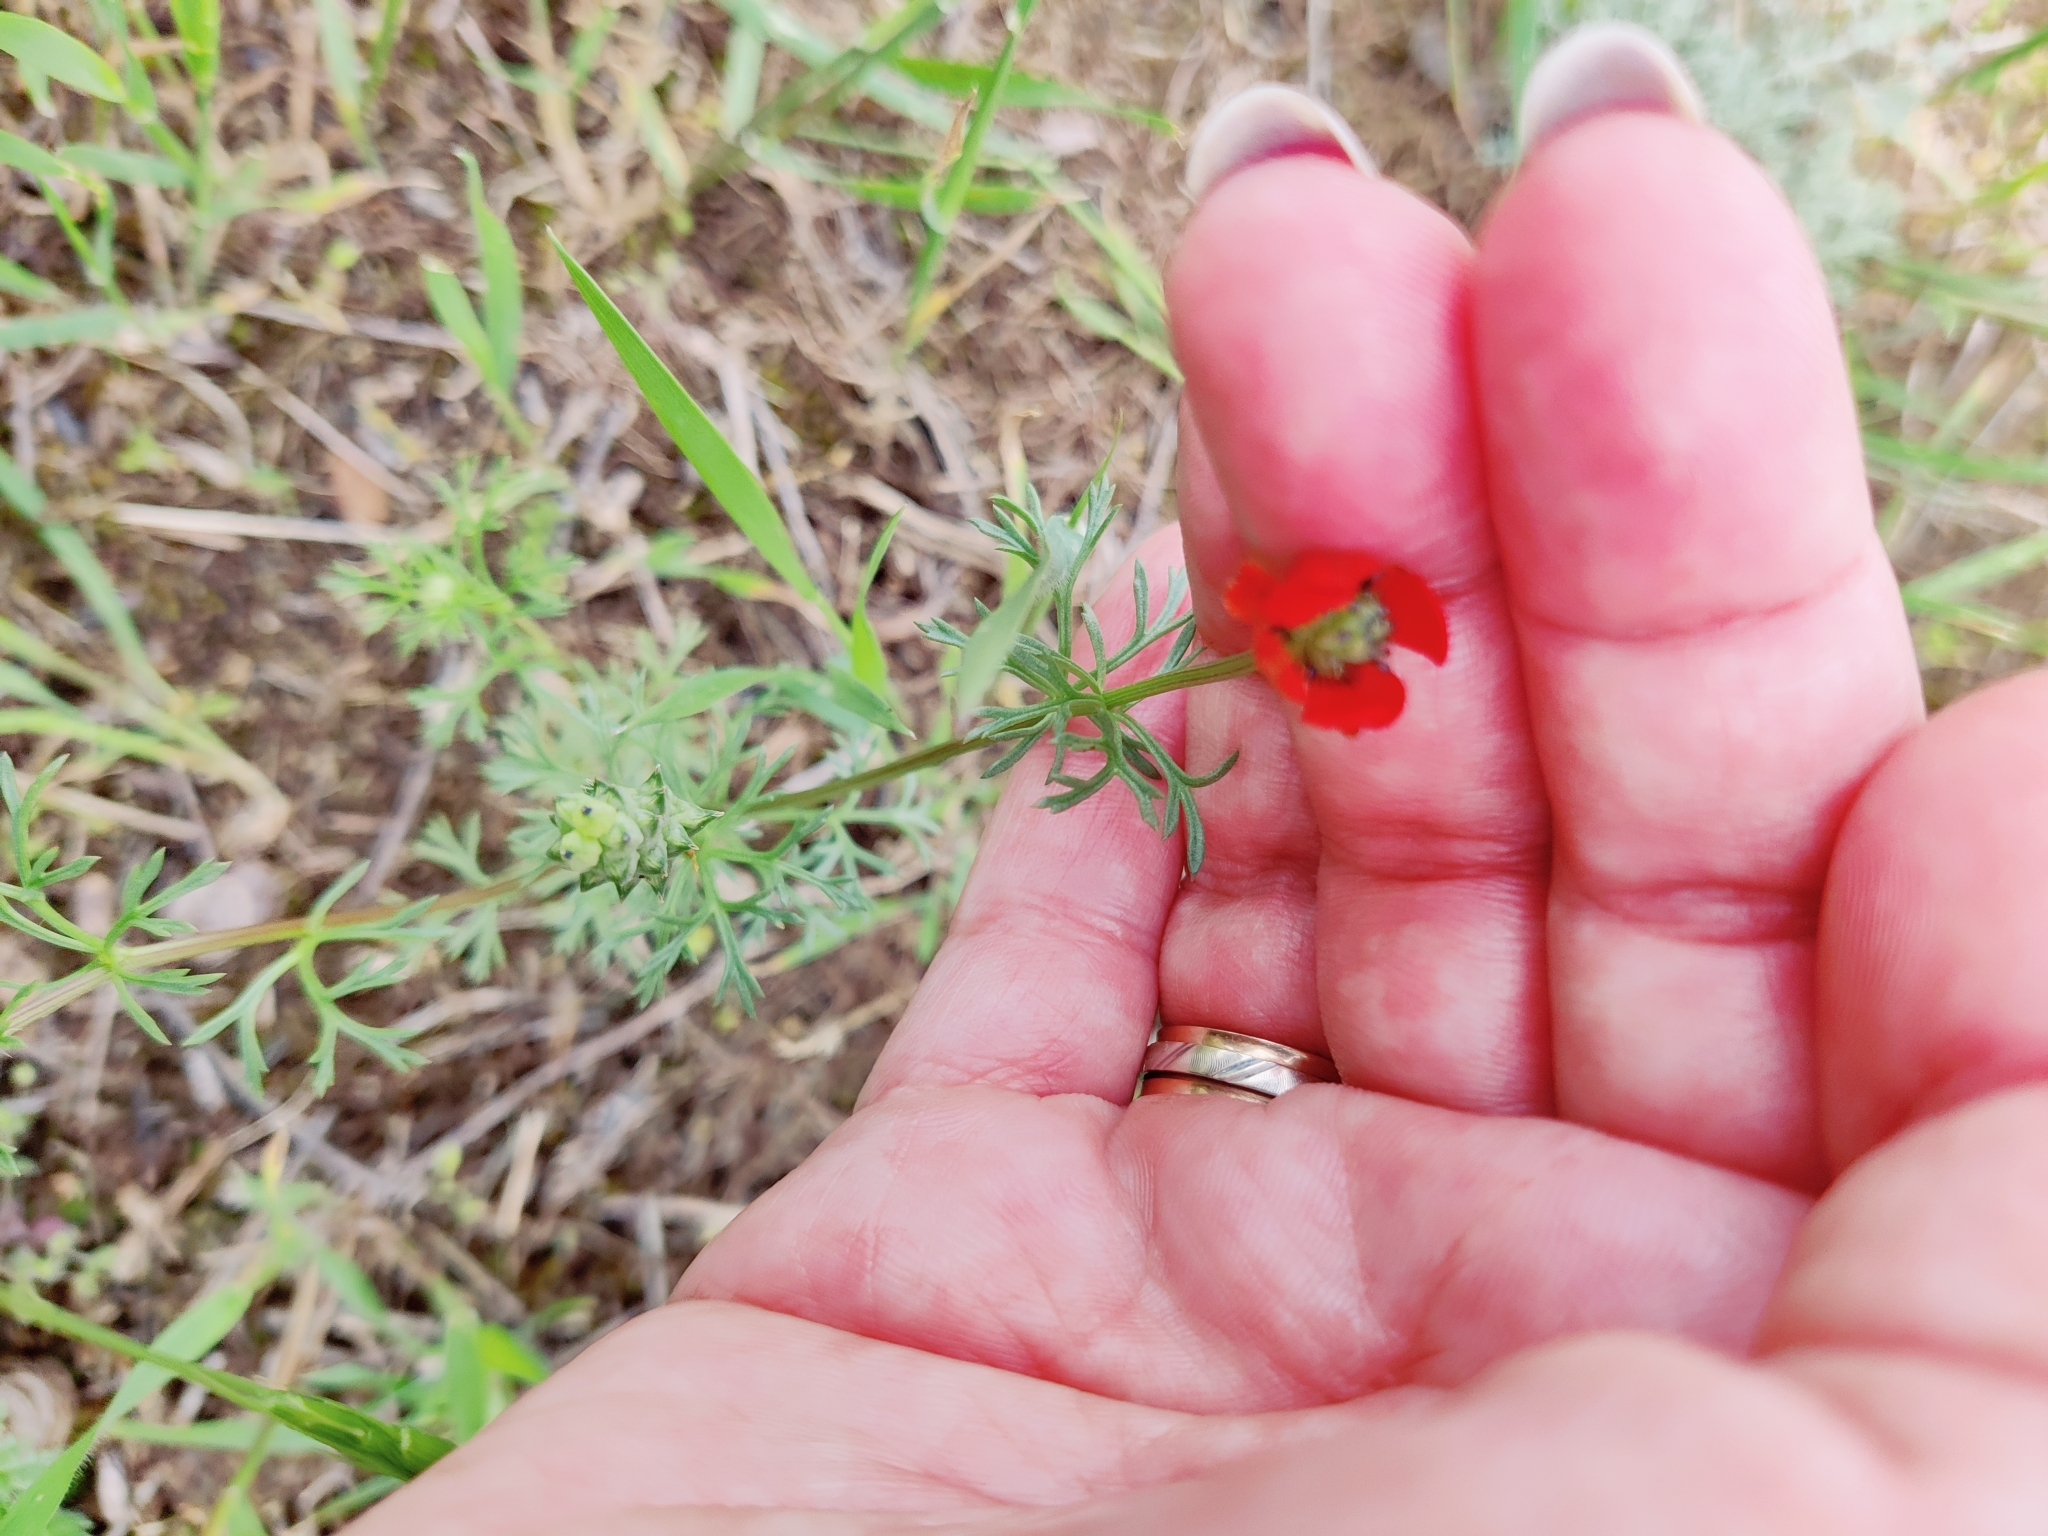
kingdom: Plantae
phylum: Tracheophyta
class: Magnoliopsida
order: Ranunculales
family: Ranunculaceae
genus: Adonis
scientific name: Adonis aestivalis
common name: Summer pheasant's-eye
